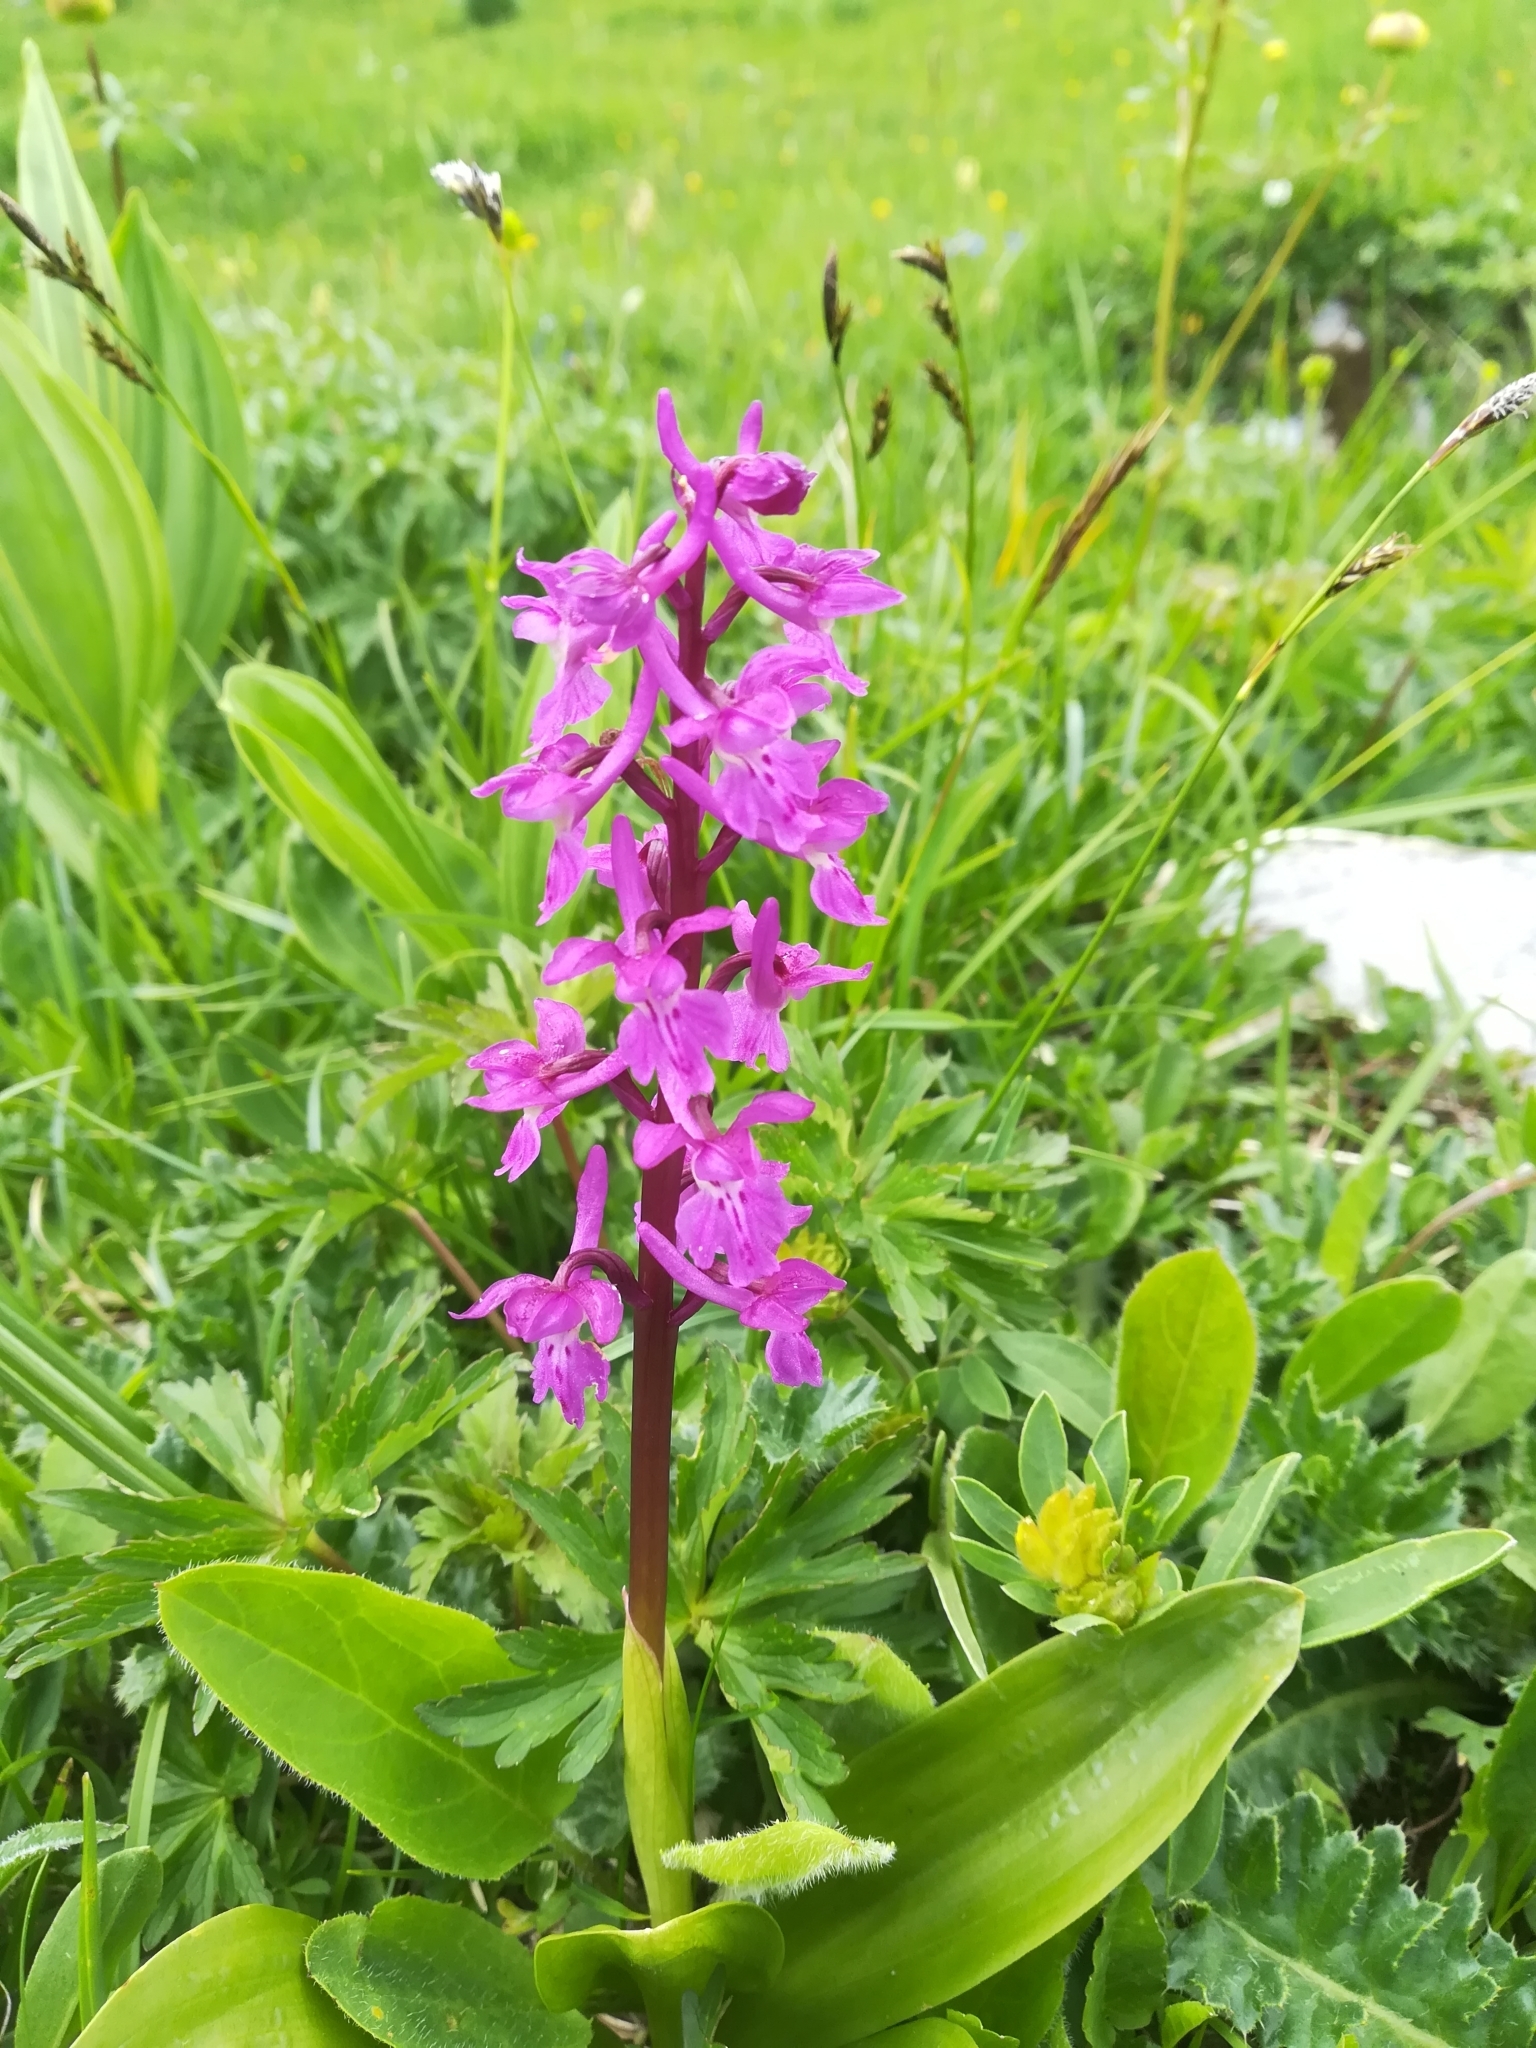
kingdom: Plantae
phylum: Tracheophyta
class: Liliopsida
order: Asparagales
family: Orchidaceae
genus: Orchis
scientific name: Orchis mascula
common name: Early-purple orchid
